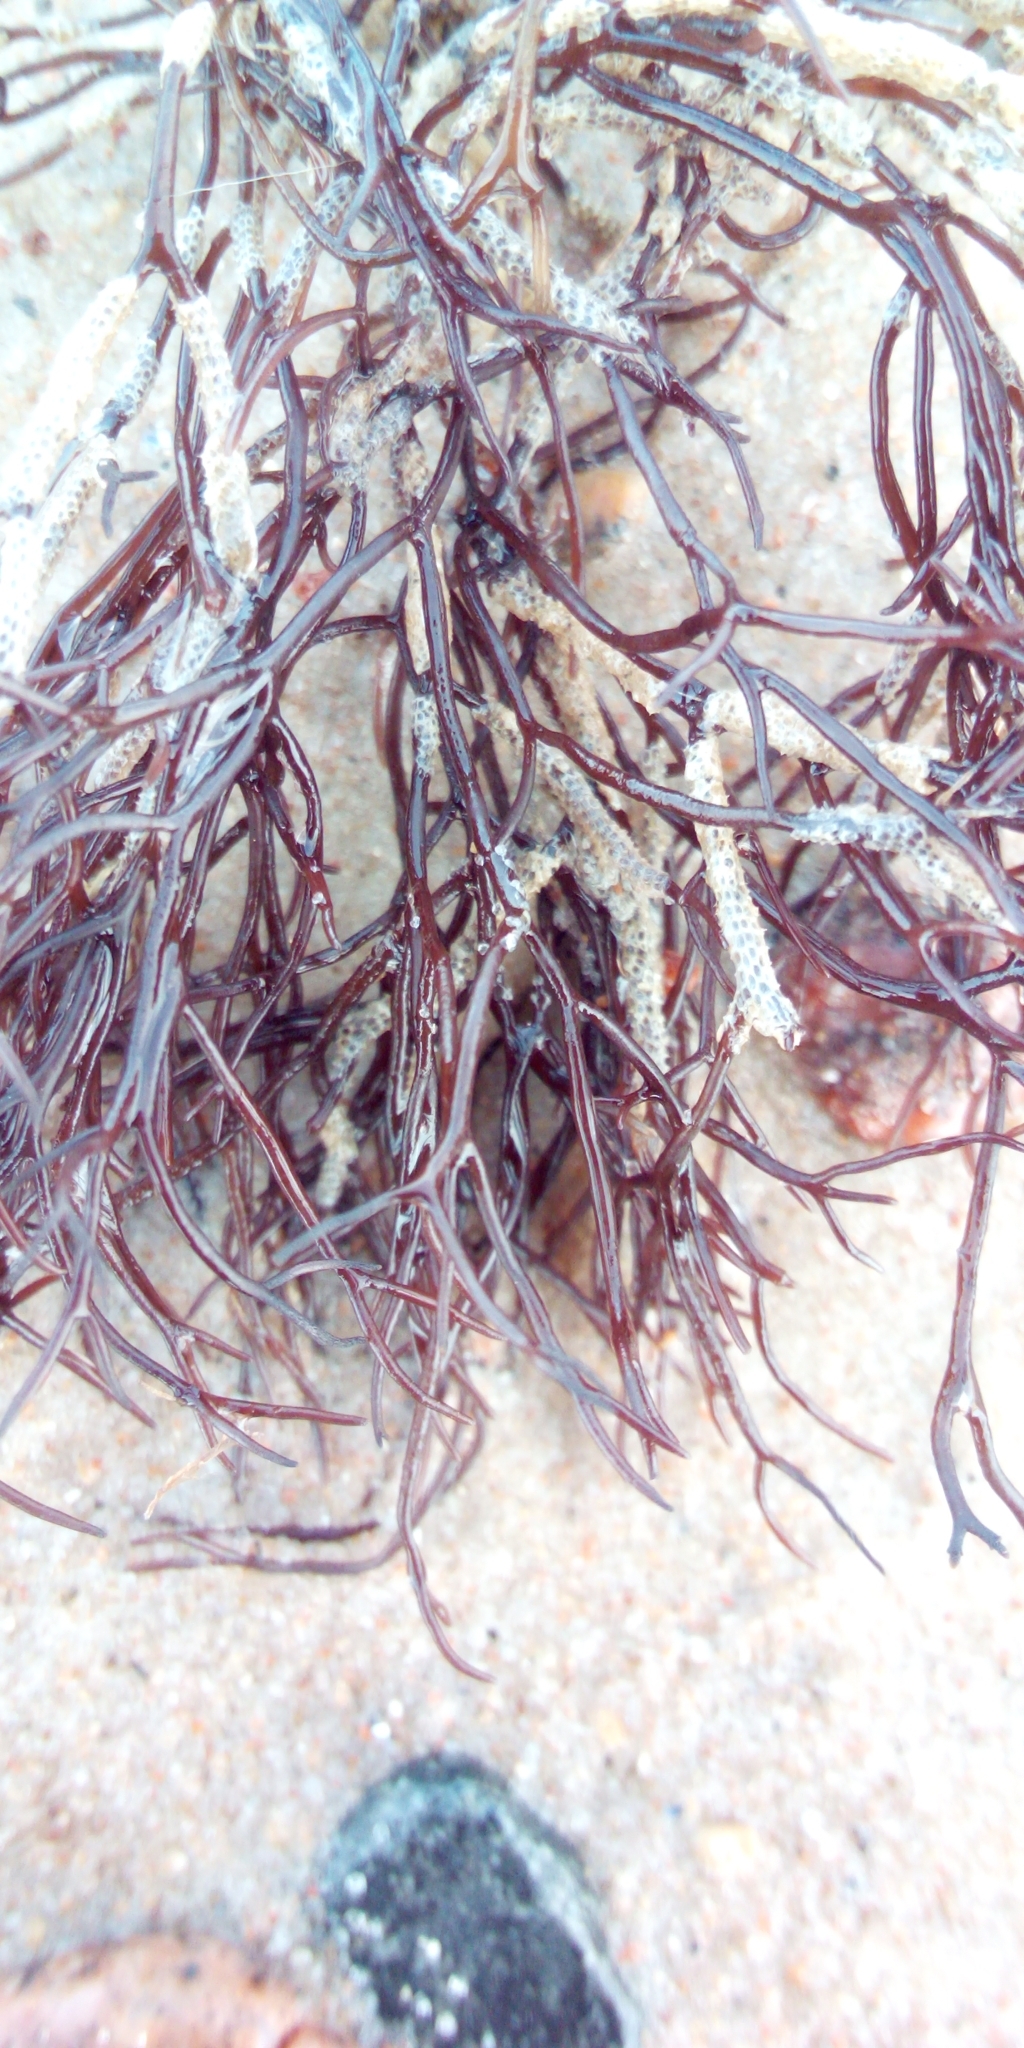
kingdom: Plantae
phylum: Rhodophyta
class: Florideophyceae
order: Gigartinales
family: Furcellariaceae
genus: Furcellaria
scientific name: Furcellaria lumbricalis
